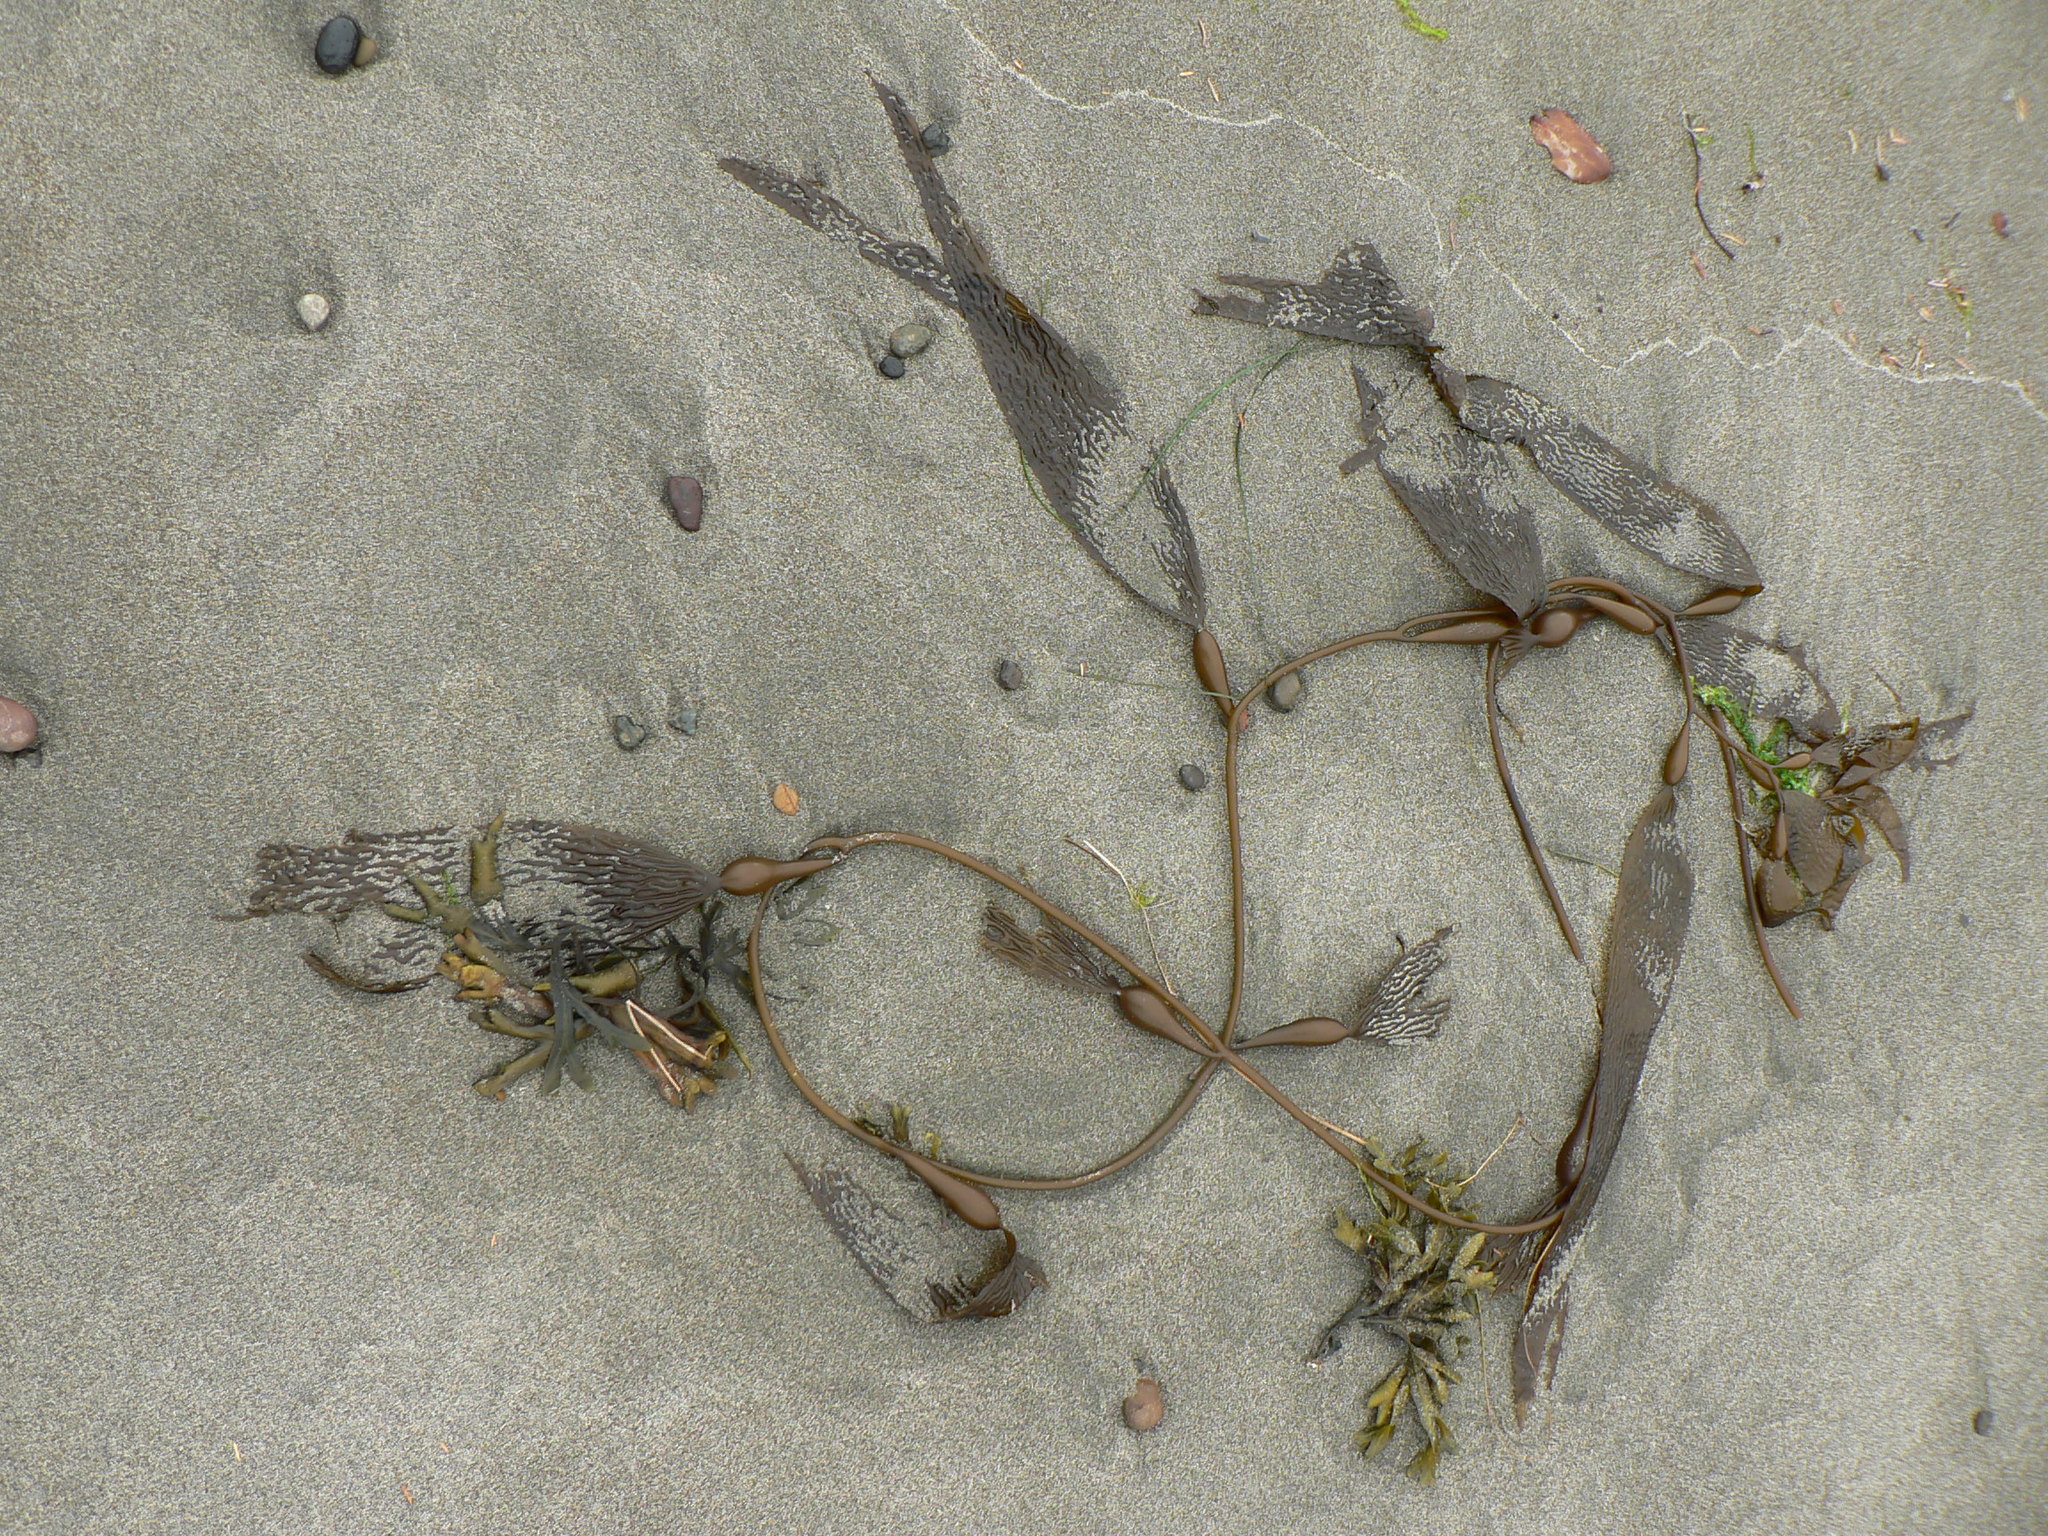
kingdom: Chromista
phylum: Ochrophyta
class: Phaeophyceae
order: Laminariales
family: Laminariaceae
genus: Macrocystis
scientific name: Macrocystis pyrifera
